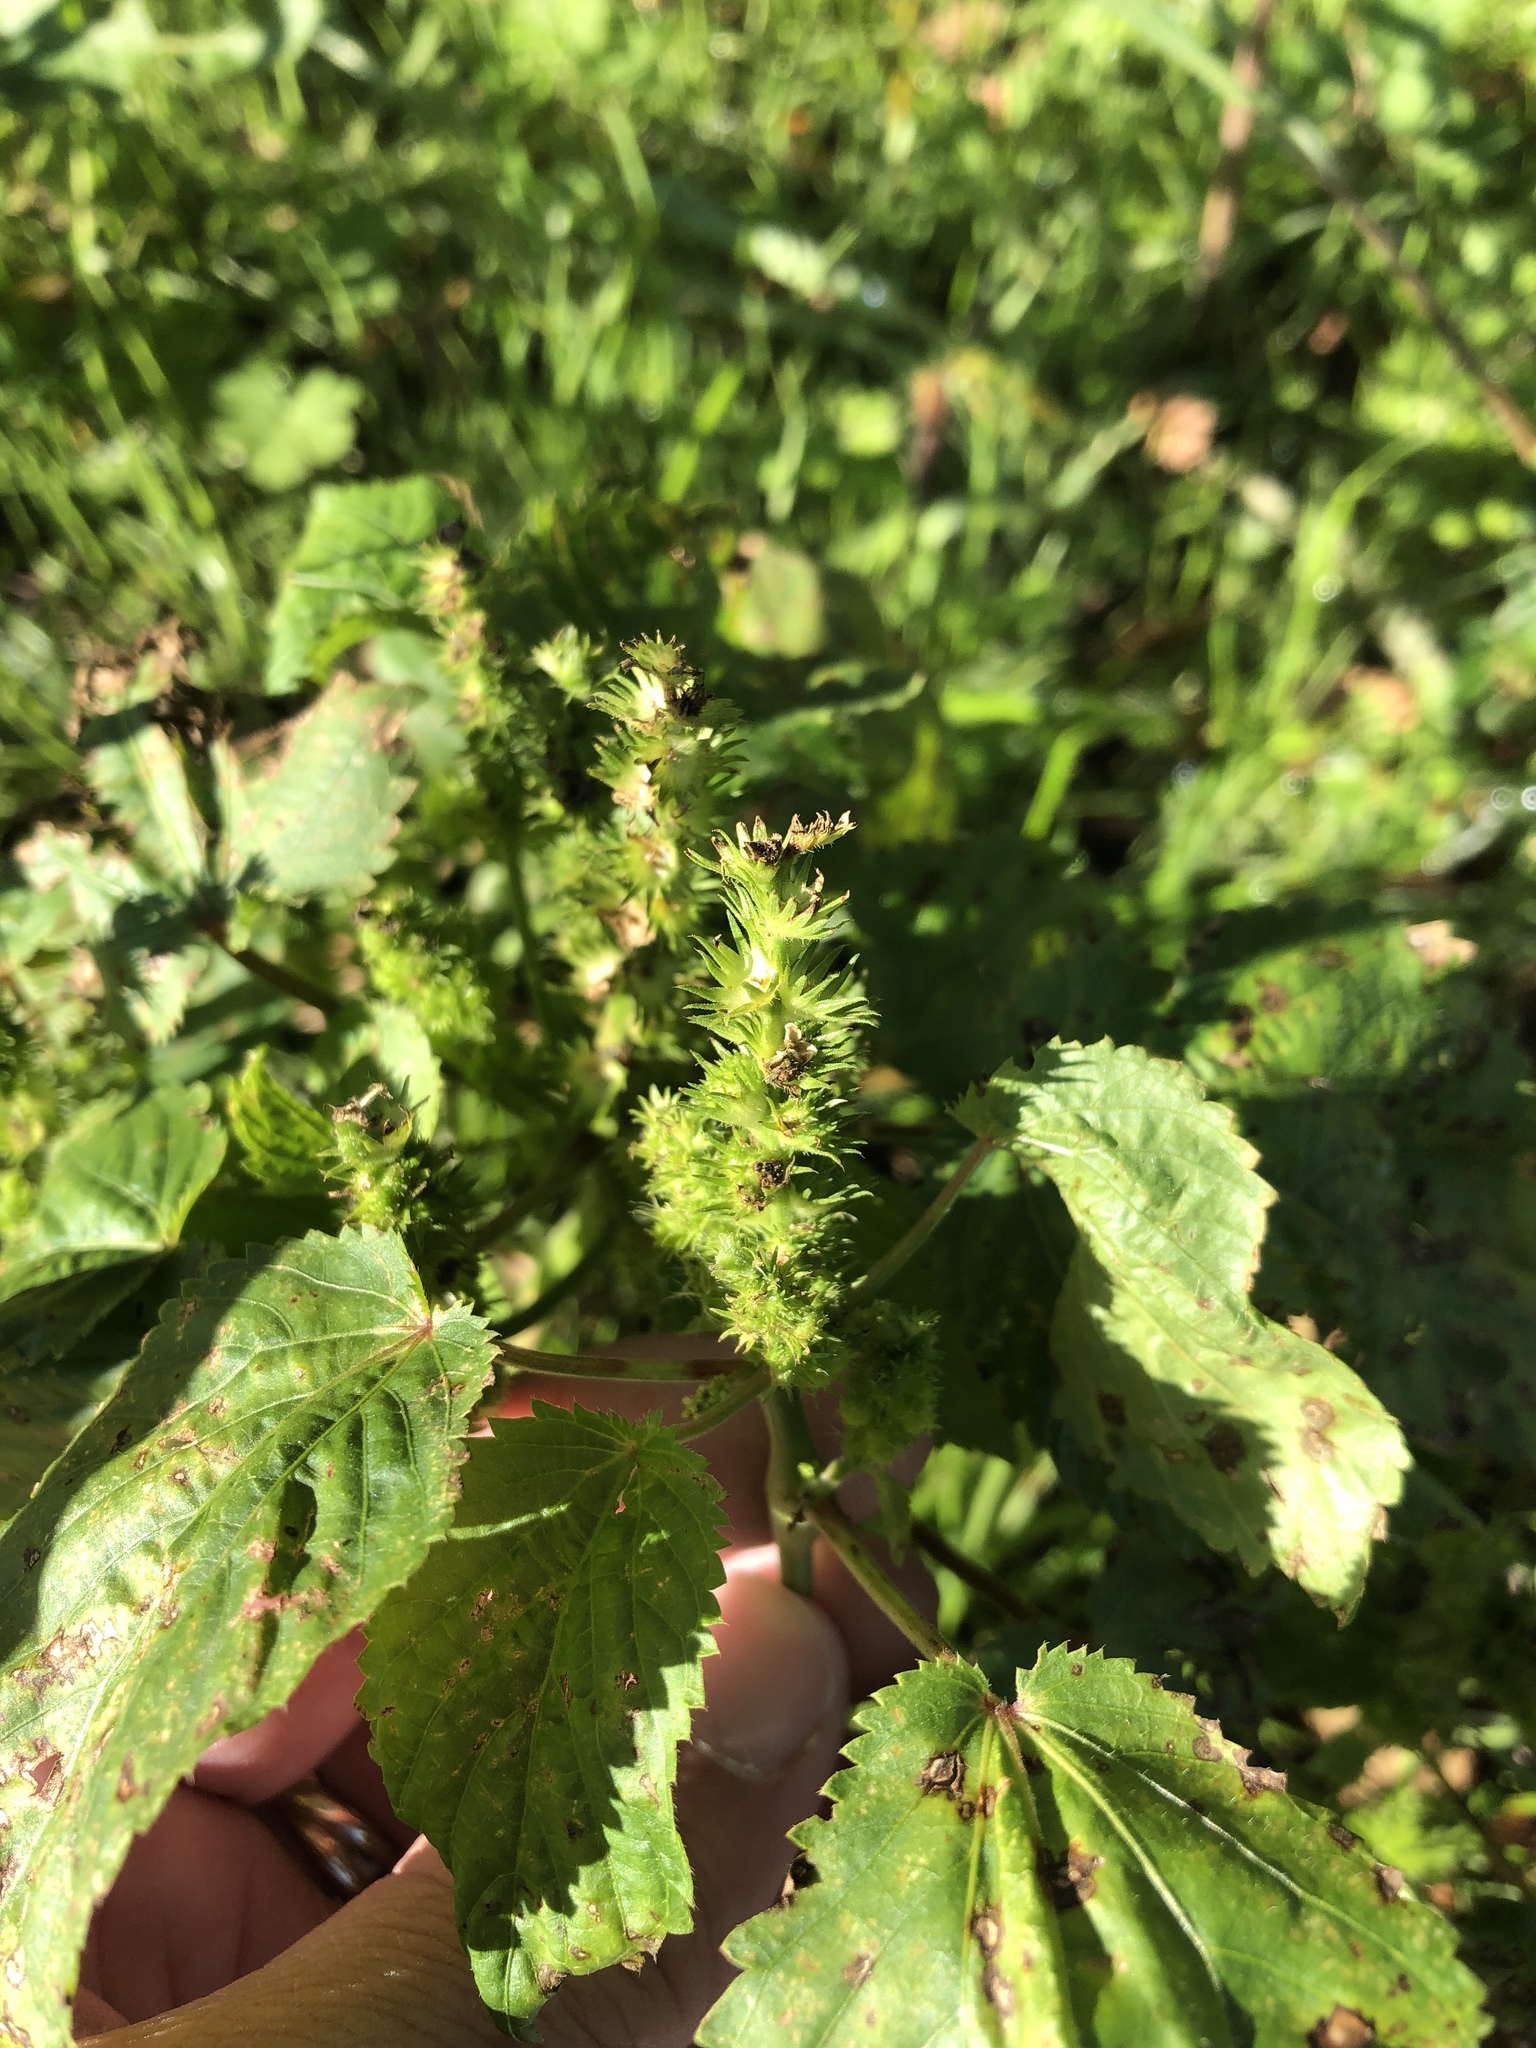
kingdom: Plantae
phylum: Tracheophyta
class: Magnoliopsida
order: Malpighiales
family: Euphorbiaceae
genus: Acalypha
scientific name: Acalypha ostryifolia
